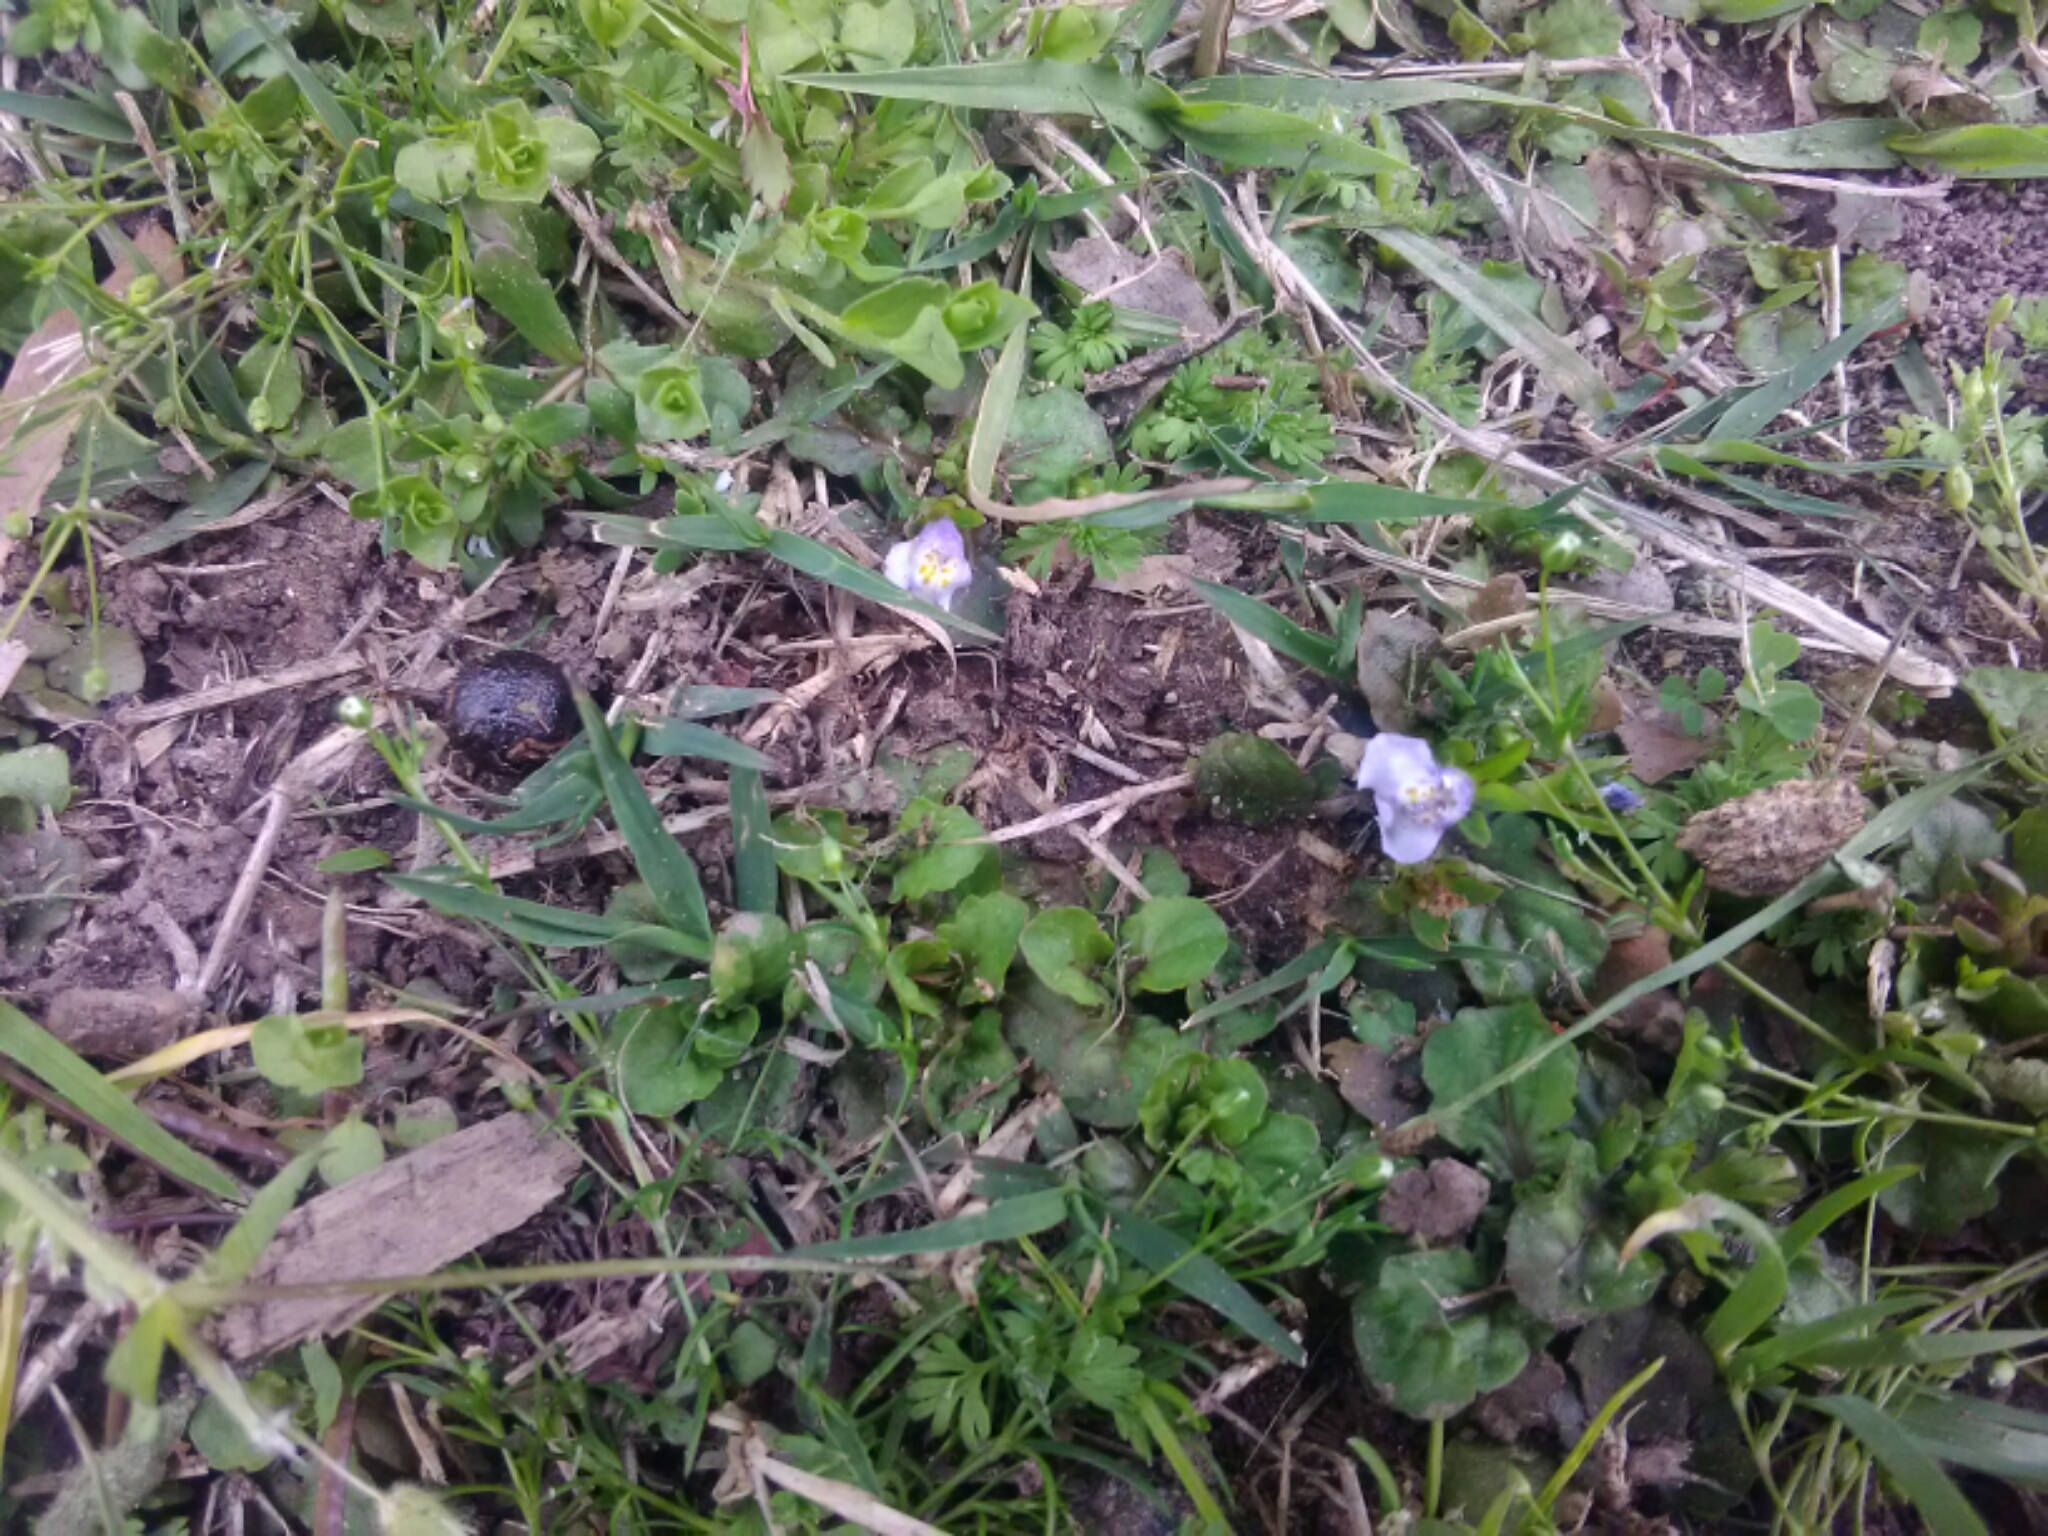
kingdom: Plantae
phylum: Tracheophyta
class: Magnoliopsida
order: Lamiales
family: Mazaceae
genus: Mazus
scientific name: Mazus pumilus
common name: Japanese mazus
